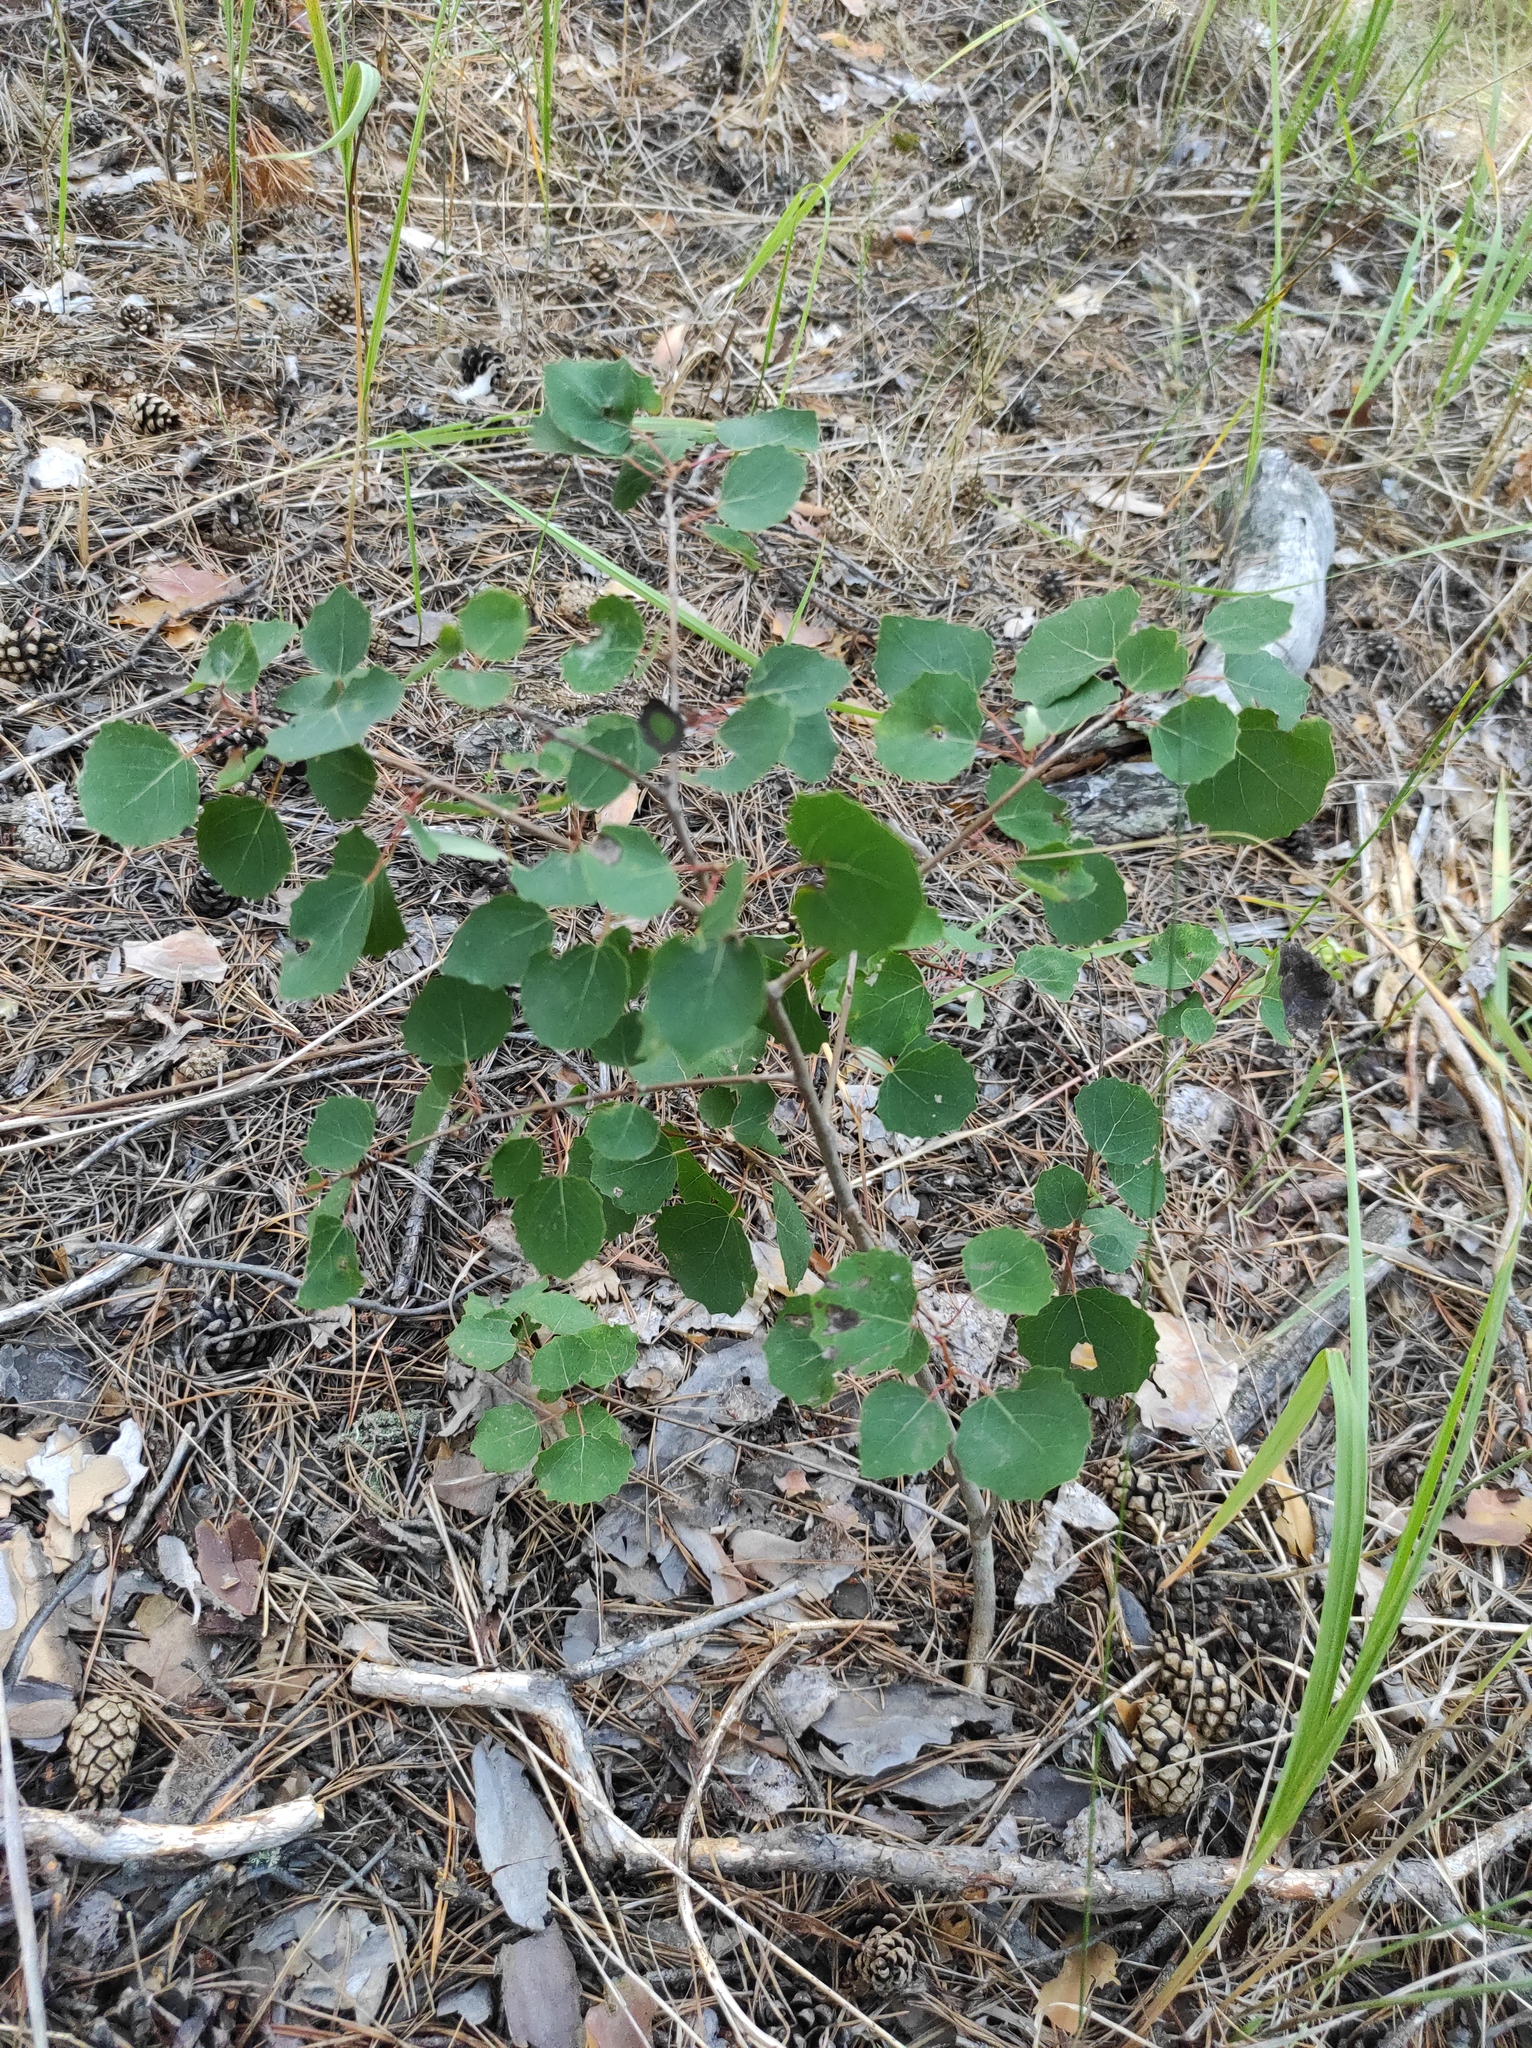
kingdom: Plantae
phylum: Tracheophyta
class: Magnoliopsida
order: Malpighiales
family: Salicaceae
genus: Populus
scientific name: Populus tremula
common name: European aspen
